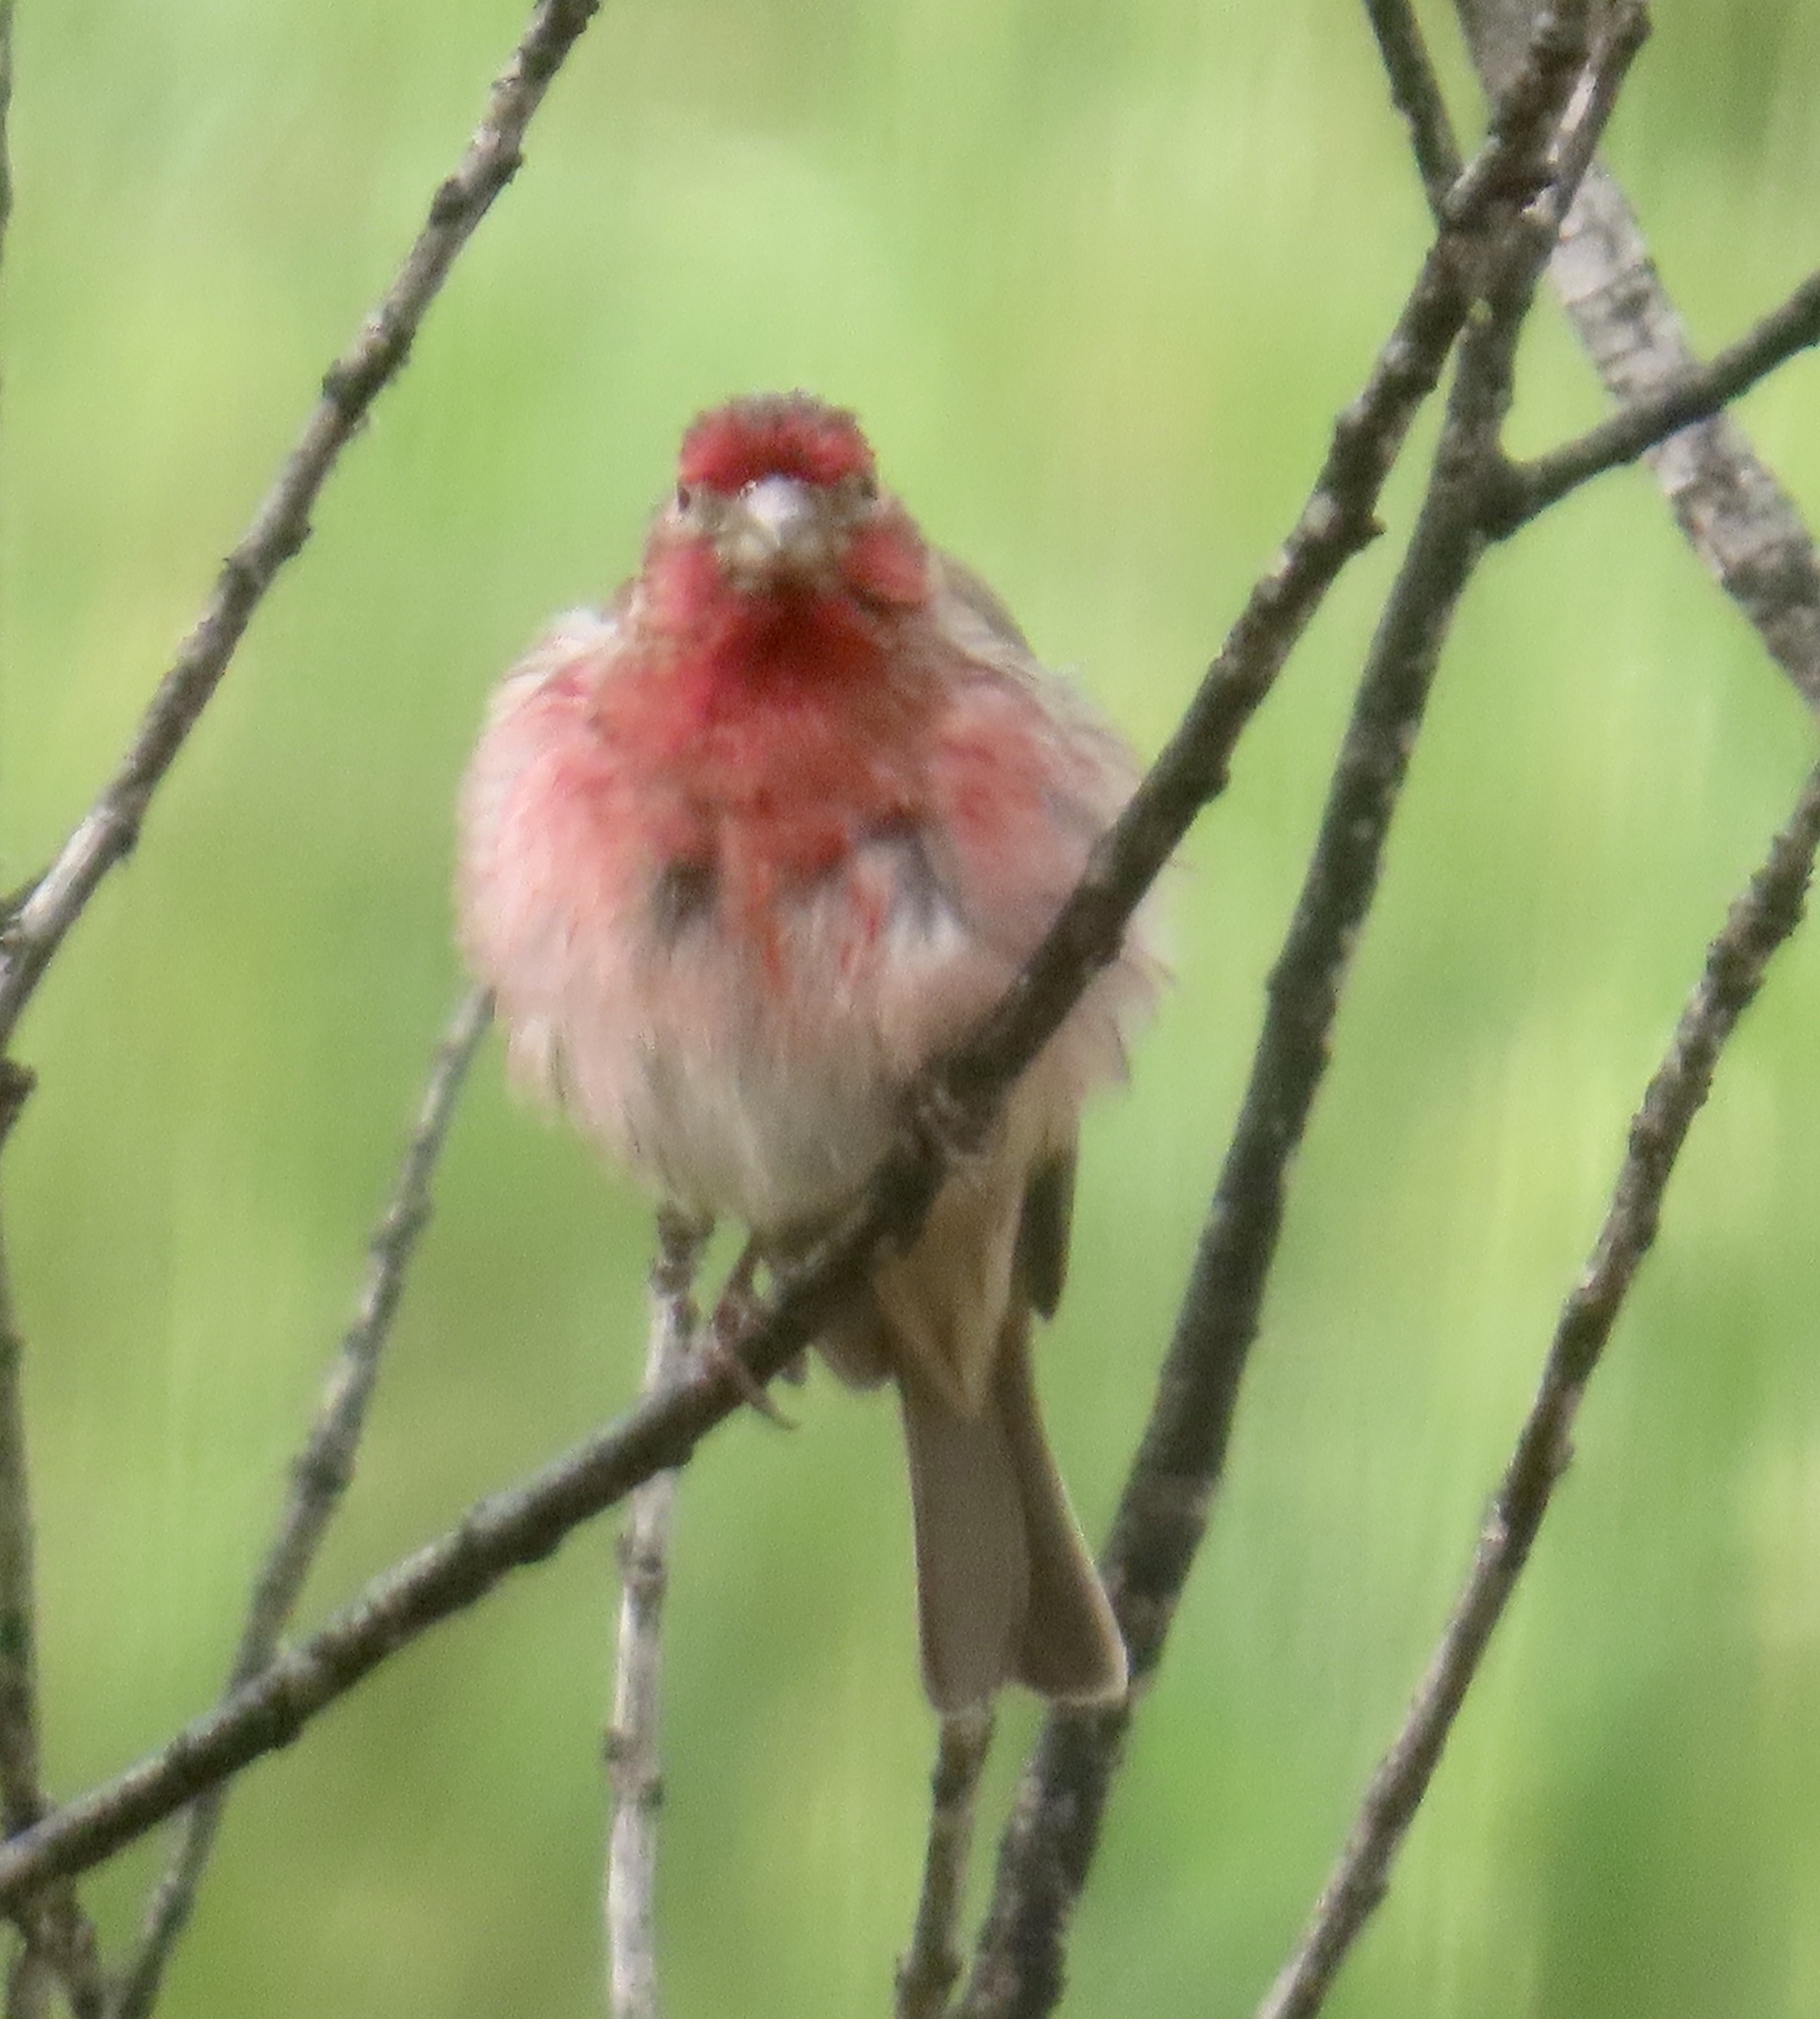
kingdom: Animalia
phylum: Chordata
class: Aves
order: Passeriformes
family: Fringillidae
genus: Haemorhous
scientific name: Haemorhous mexicanus
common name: House finch
